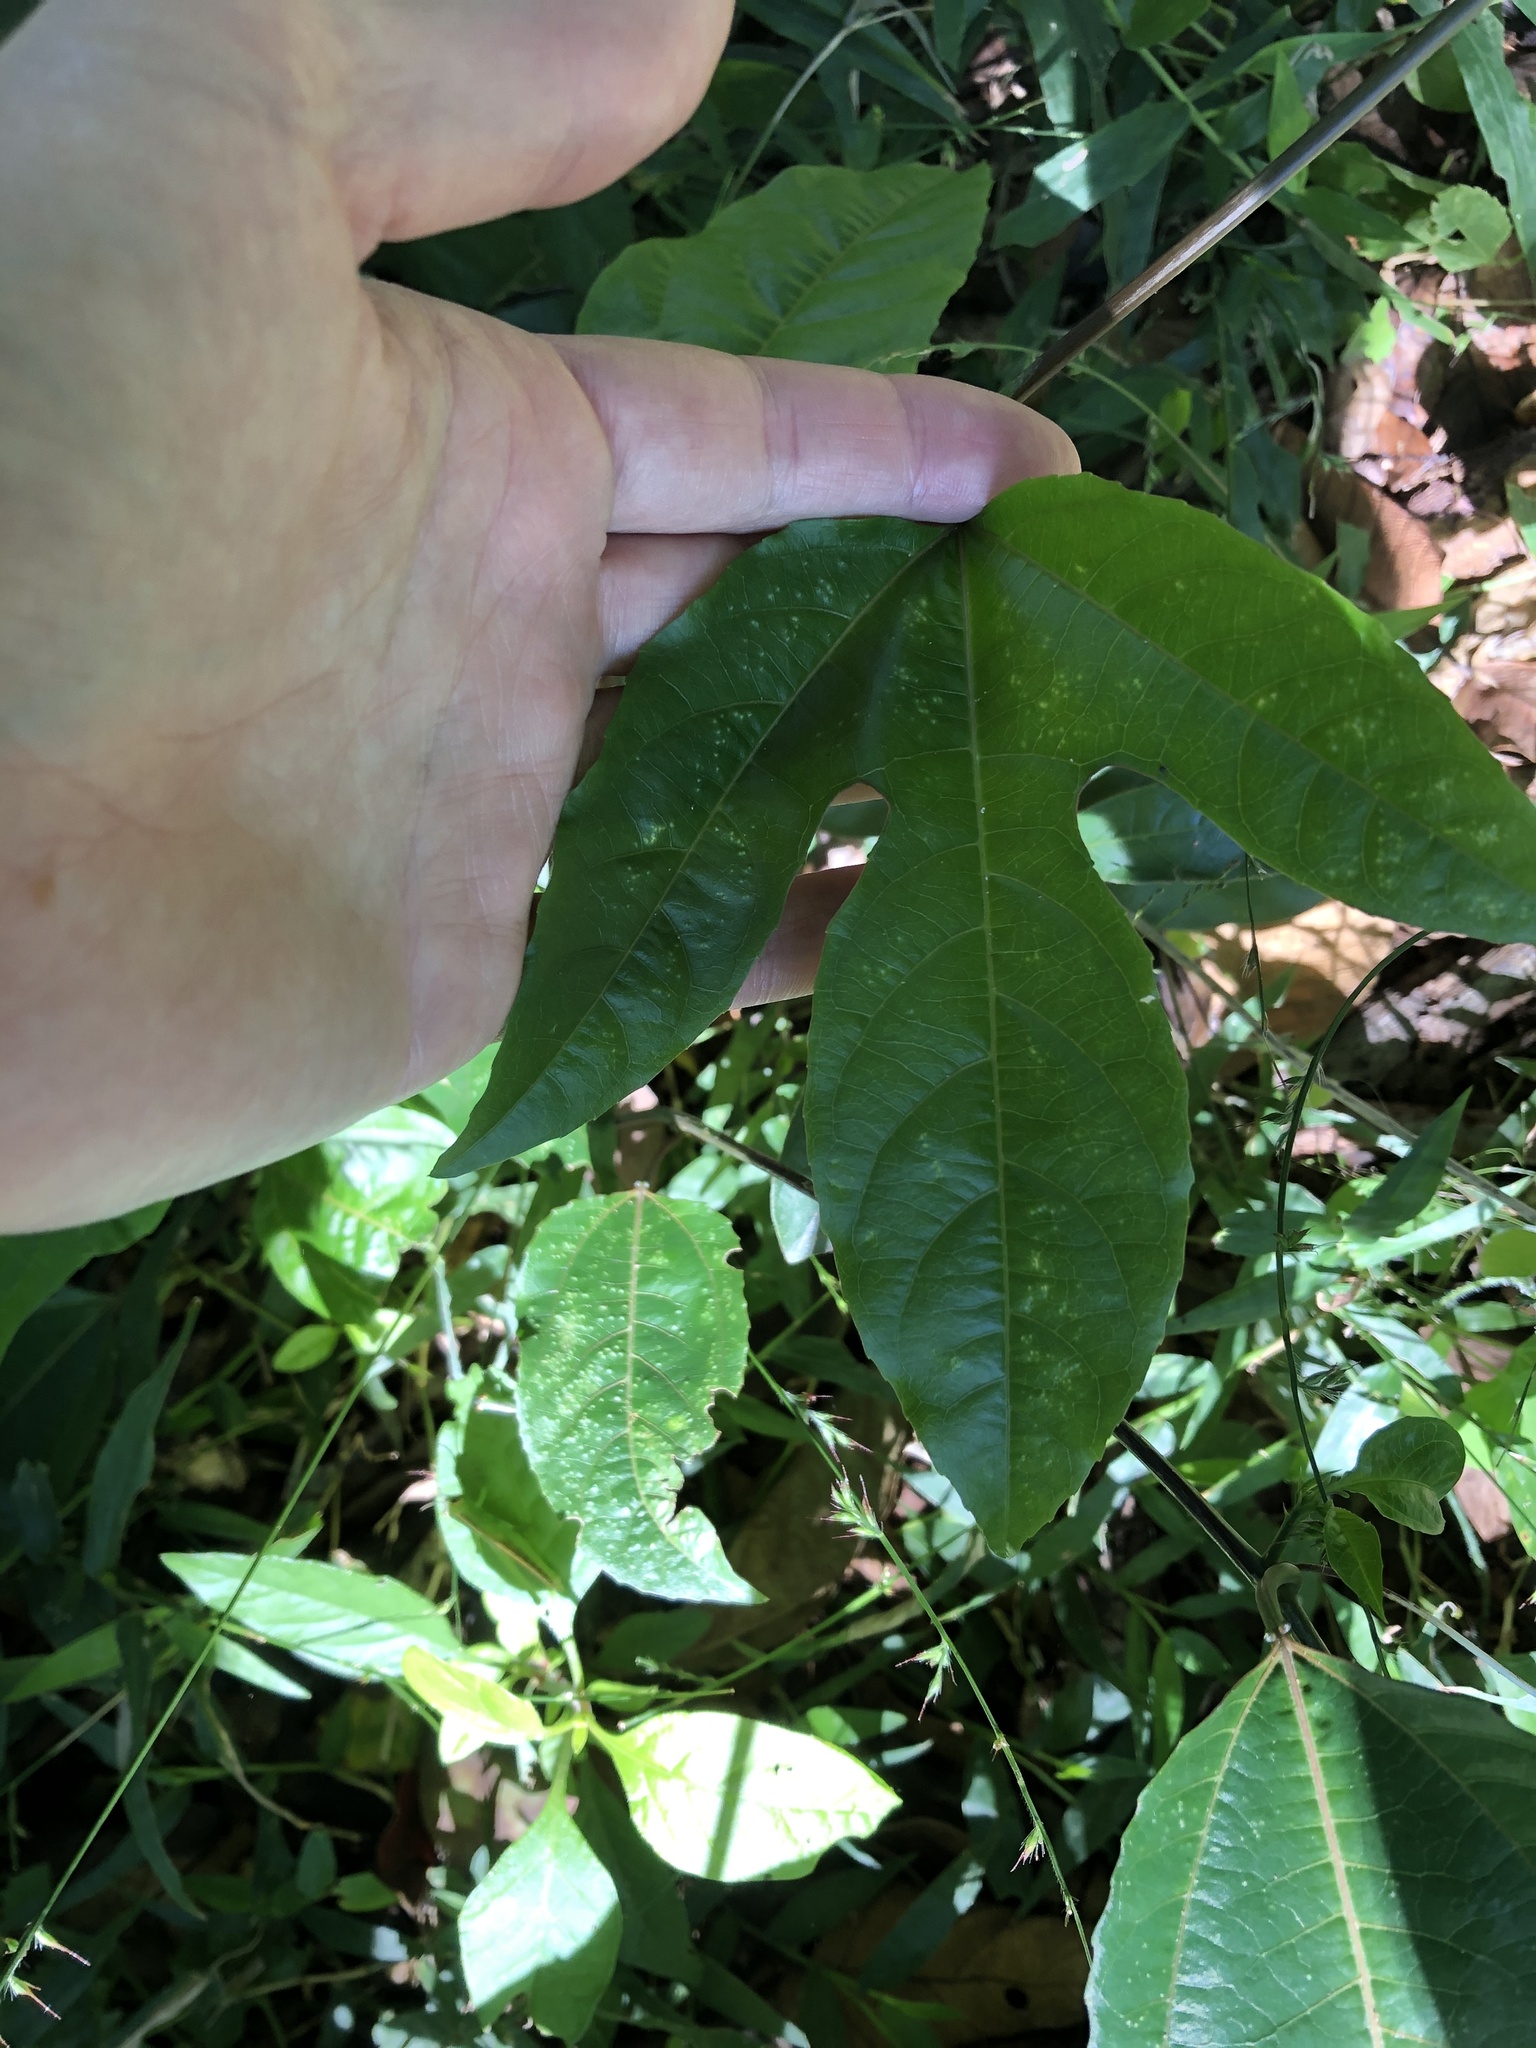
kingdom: Plantae
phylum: Tracheophyta
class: Magnoliopsida
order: Malpighiales
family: Passifloraceae
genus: Passiflora
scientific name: Passiflora edulis
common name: Purple granadilla
